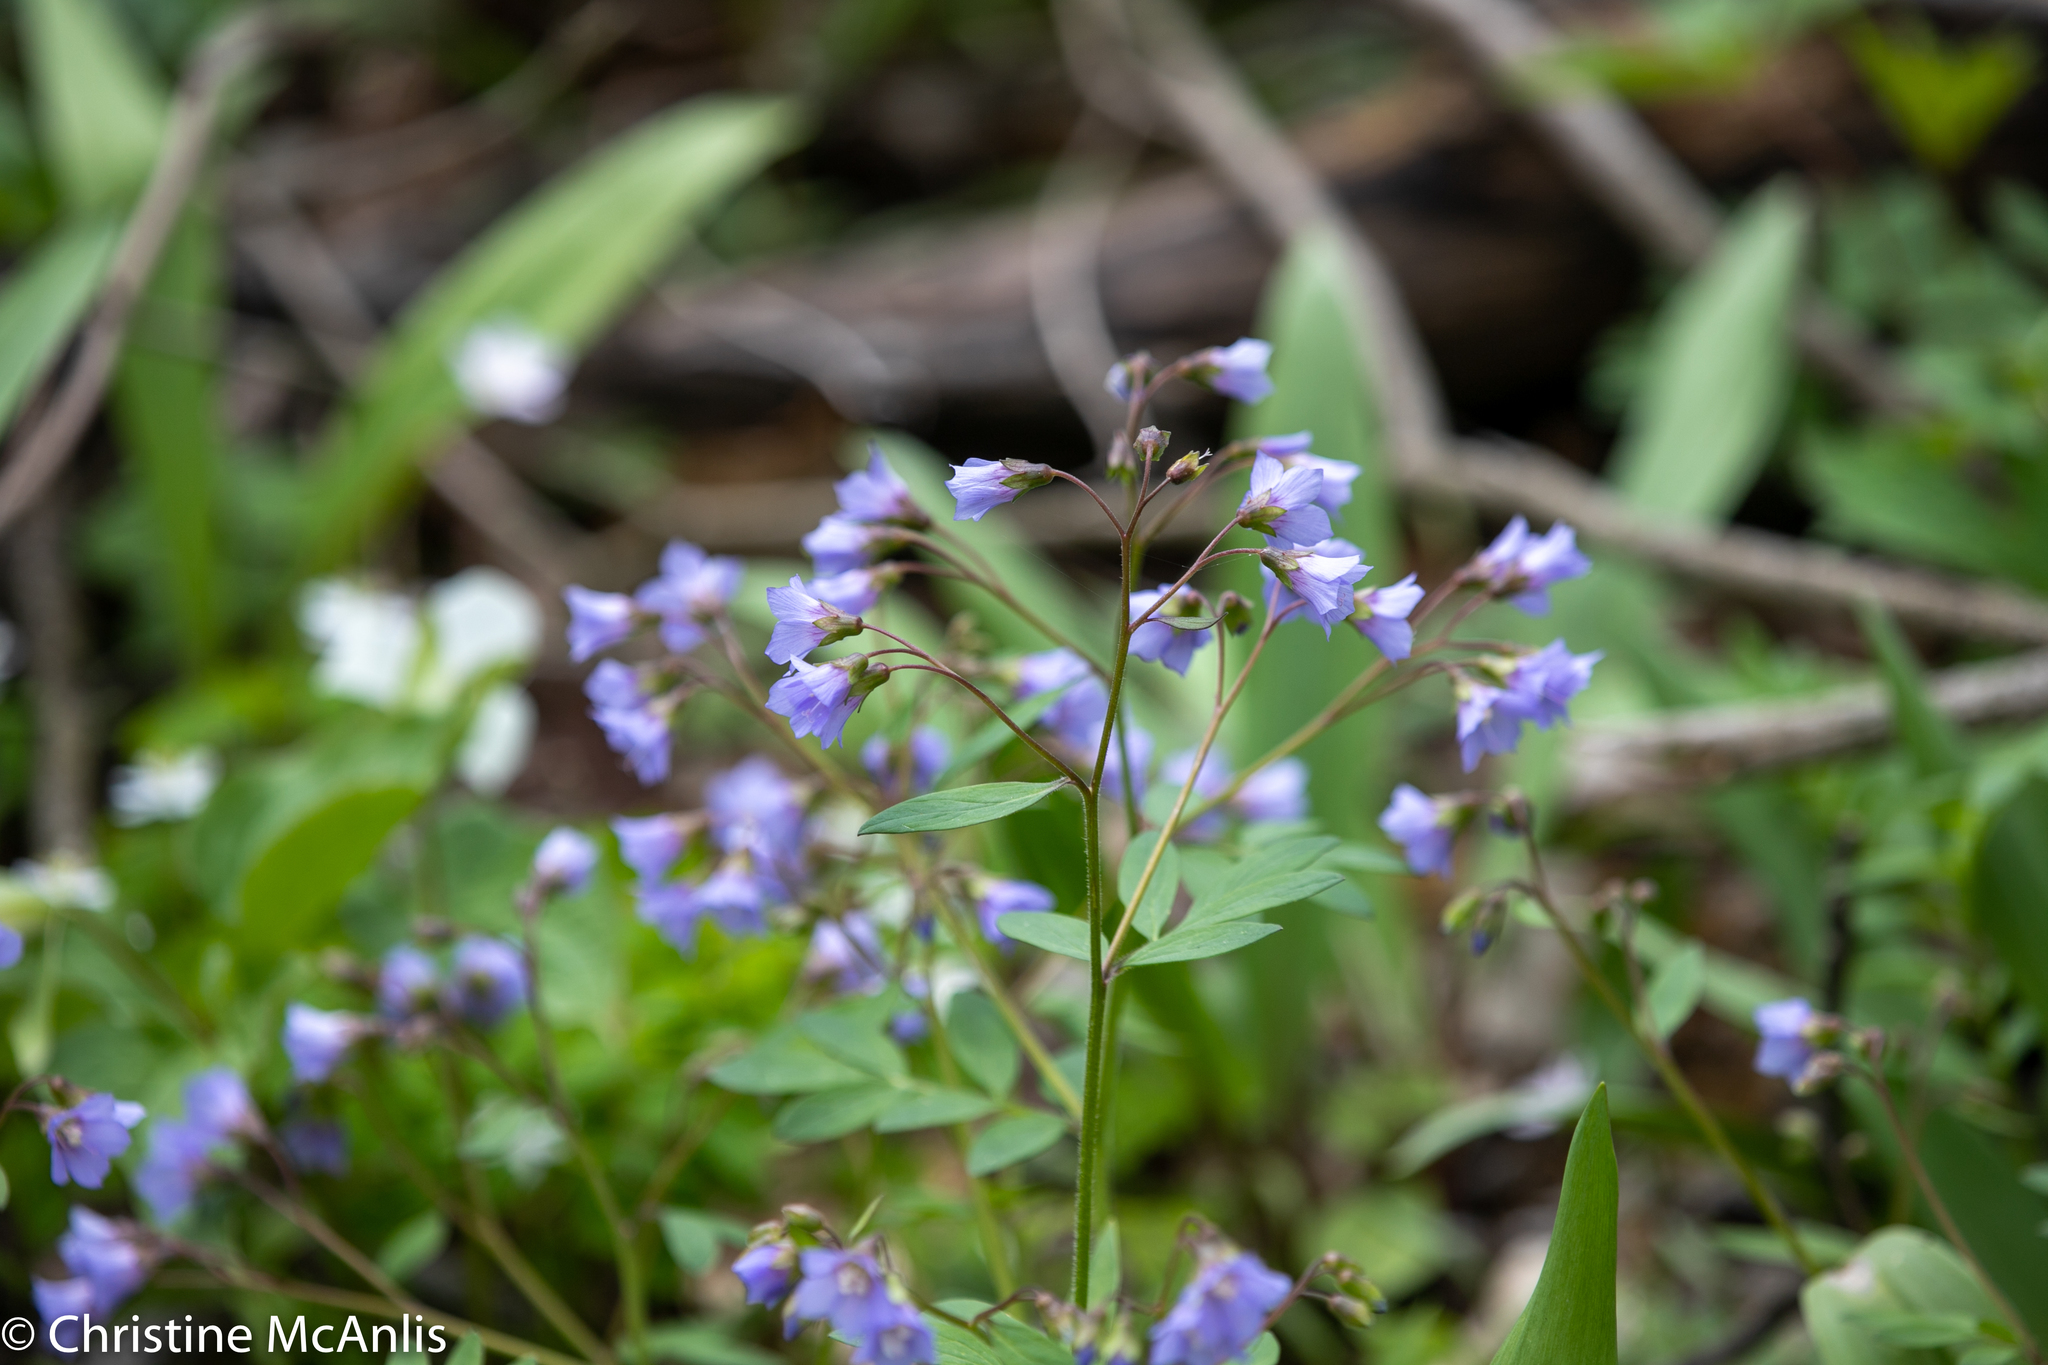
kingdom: Plantae
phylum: Tracheophyta
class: Magnoliopsida
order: Ericales
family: Polemoniaceae
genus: Polemonium
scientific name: Polemonium reptans
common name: Creeping jacob's-ladder
